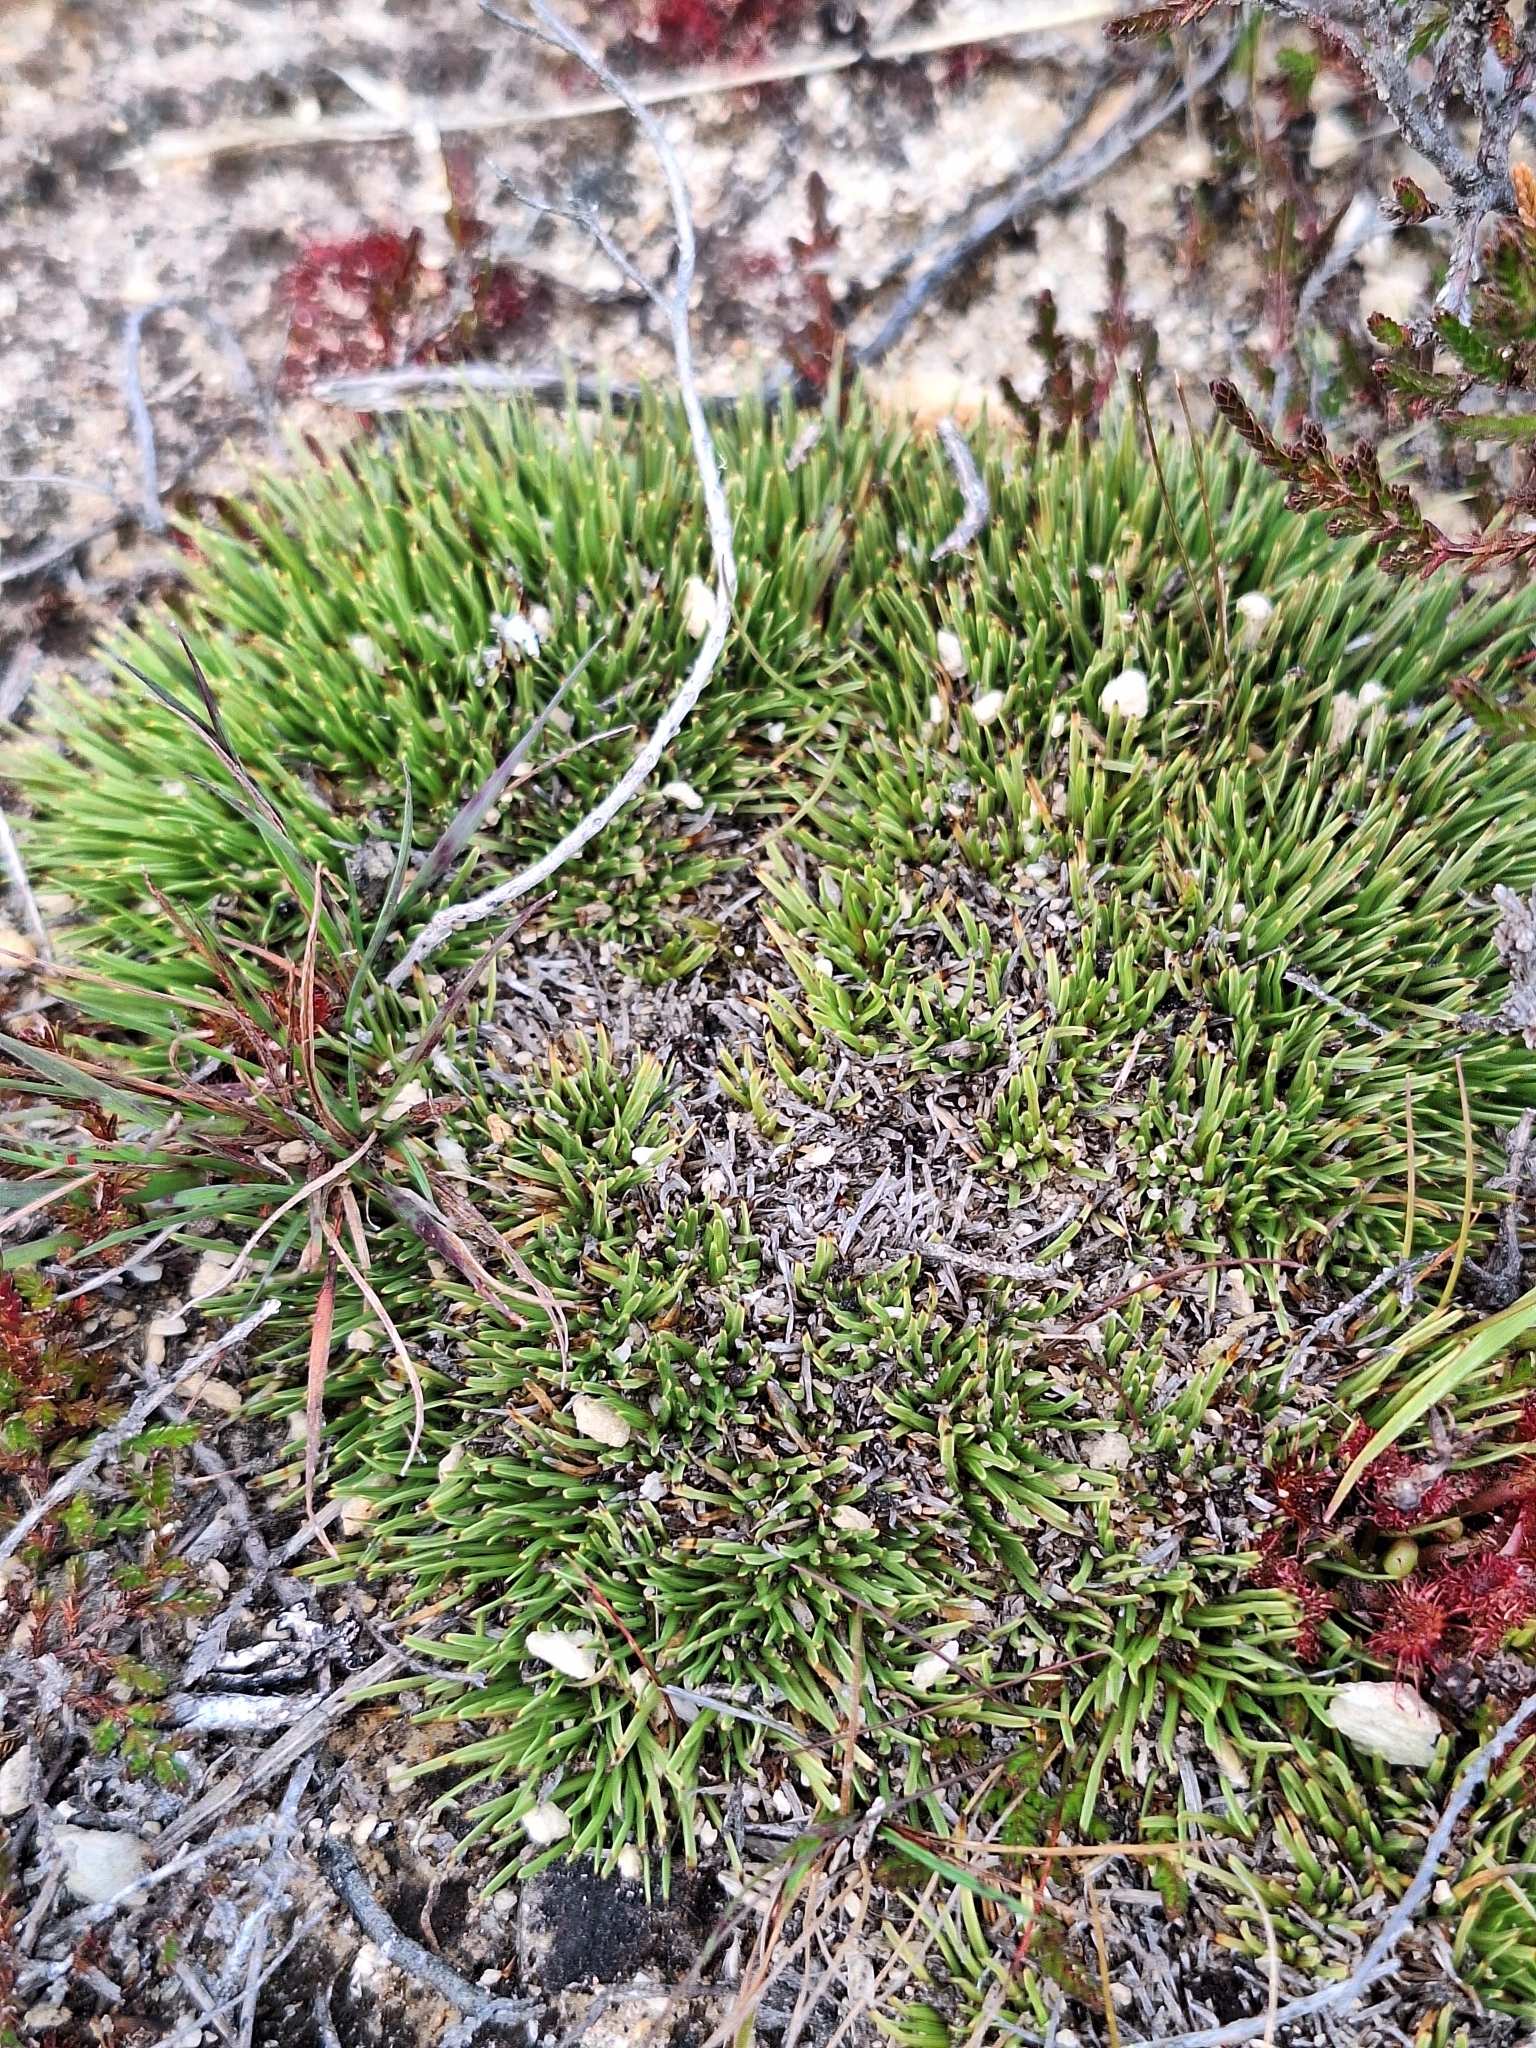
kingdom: Plantae
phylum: Tracheophyta
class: Liliopsida
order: Poales
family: Cyperaceae
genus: Oreobolus
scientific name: Oreobolus pectinatus
